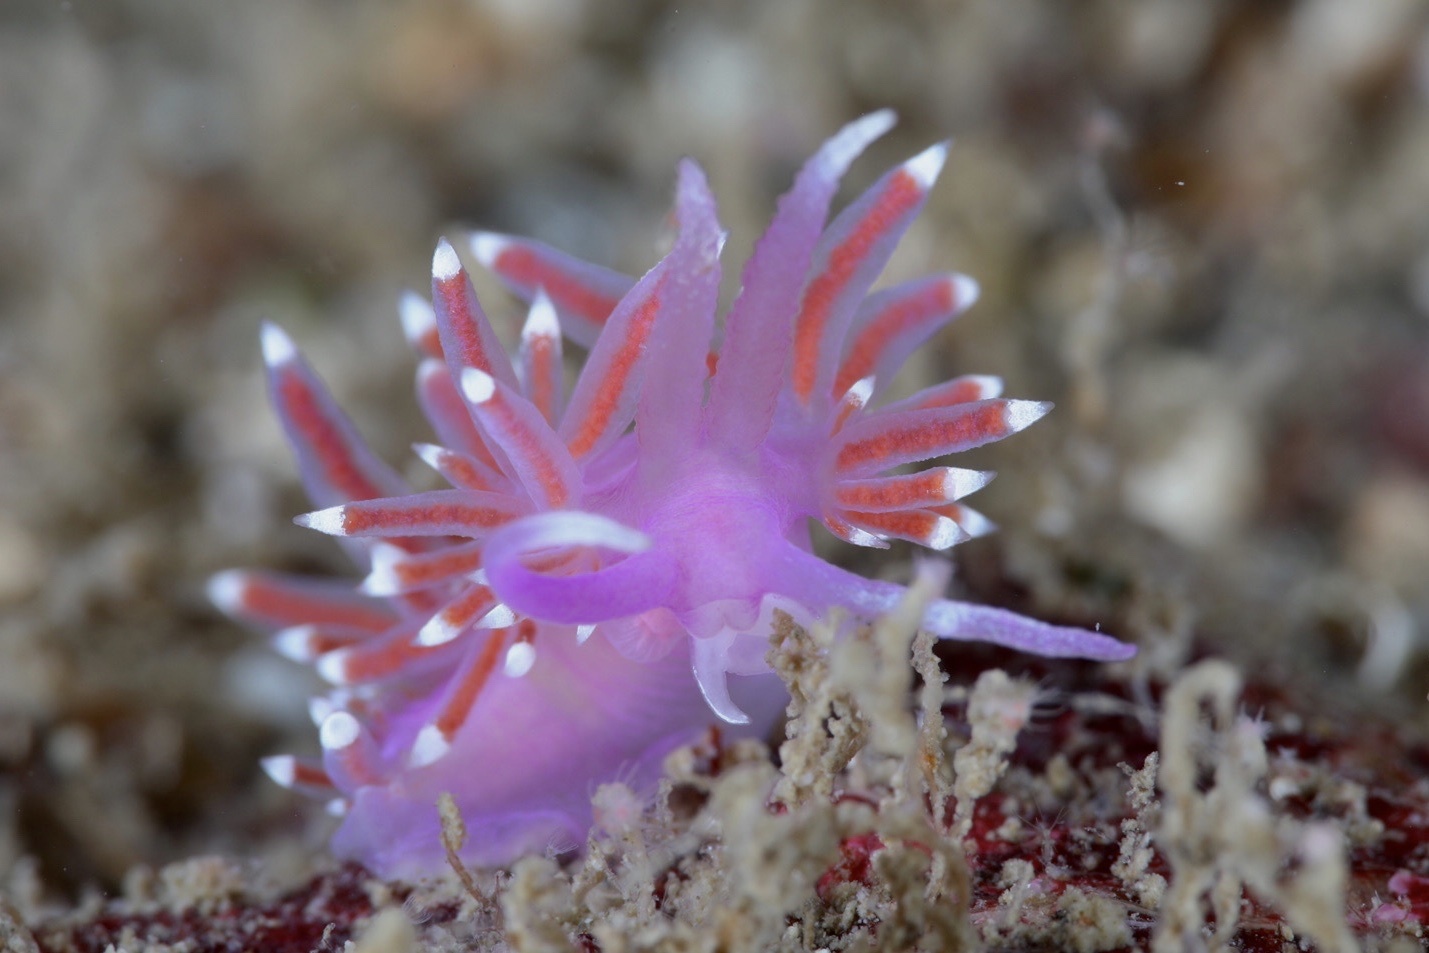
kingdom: Animalia
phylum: Mollusca
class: Gastropoda
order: Nudibranchia
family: Flabellinidae
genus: Edmundsella
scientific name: Edmundsella pedata
